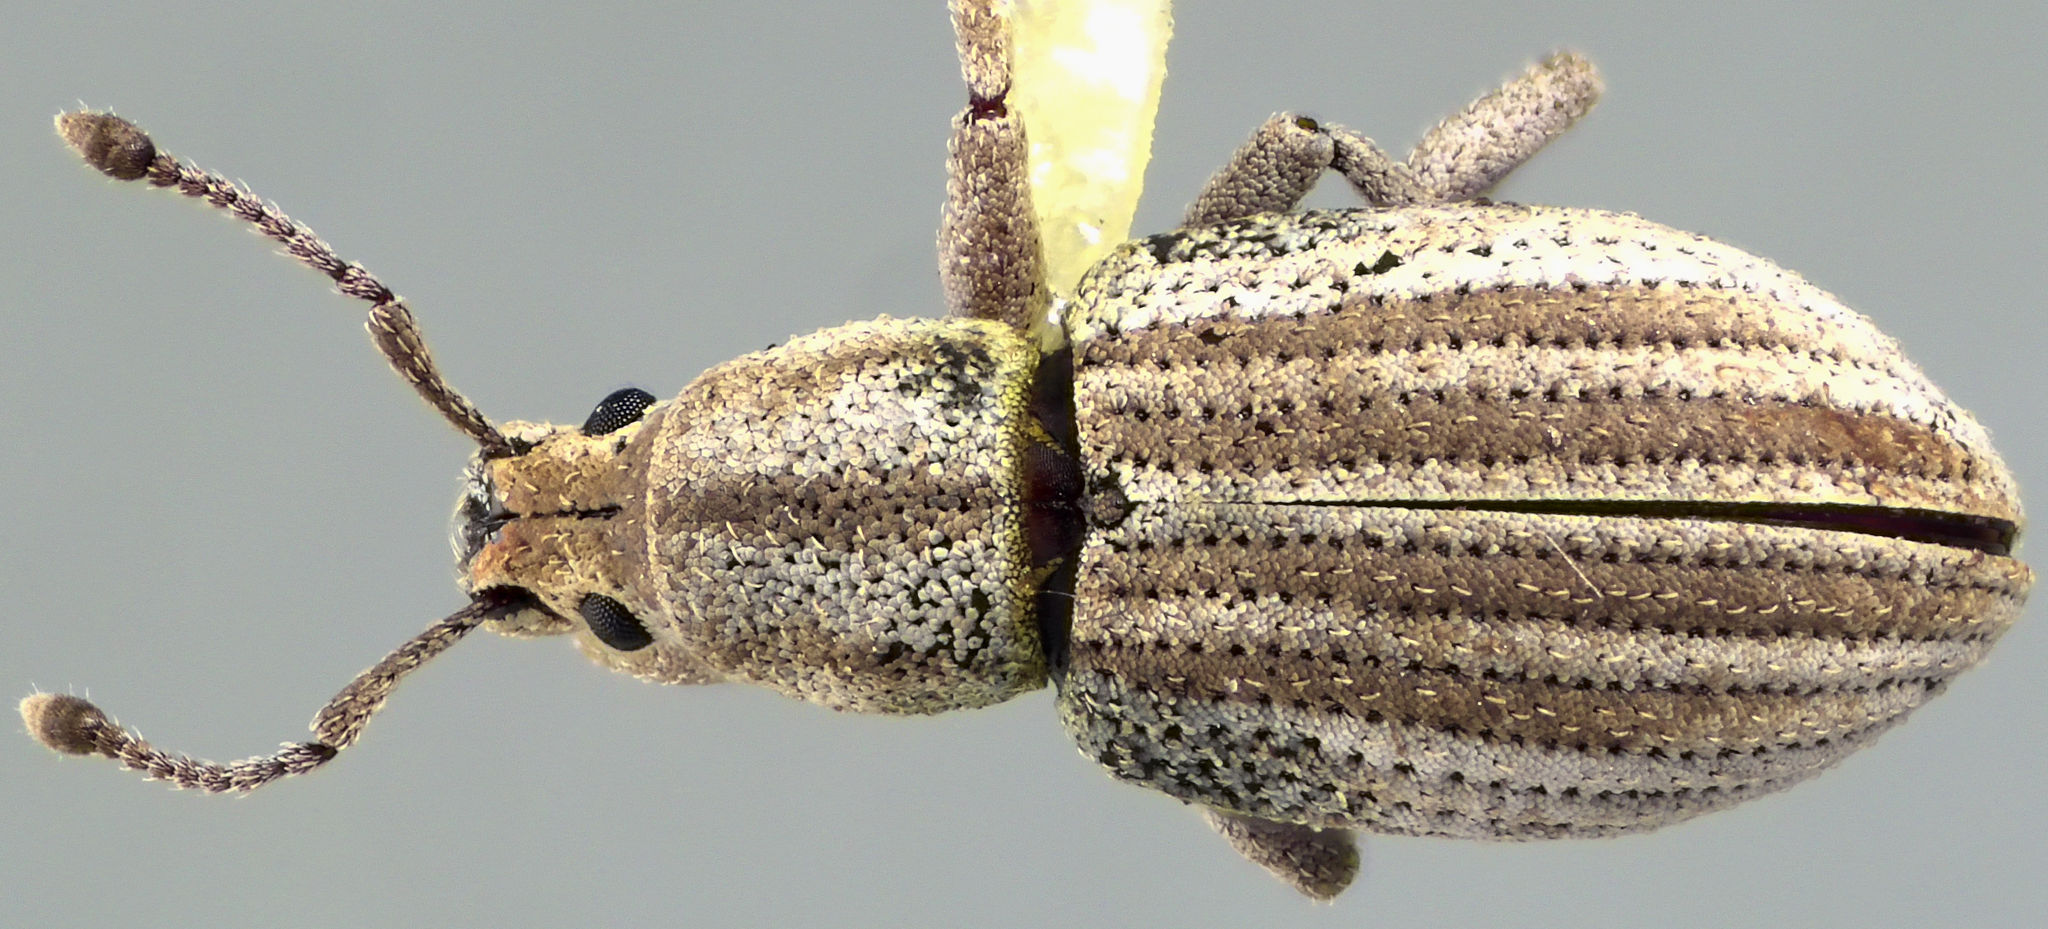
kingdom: Animalia
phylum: Arthropoda
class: Insecta
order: Coleoptera
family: Curculionidae
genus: Aphrastus
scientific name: Aphrastus taeniatus
